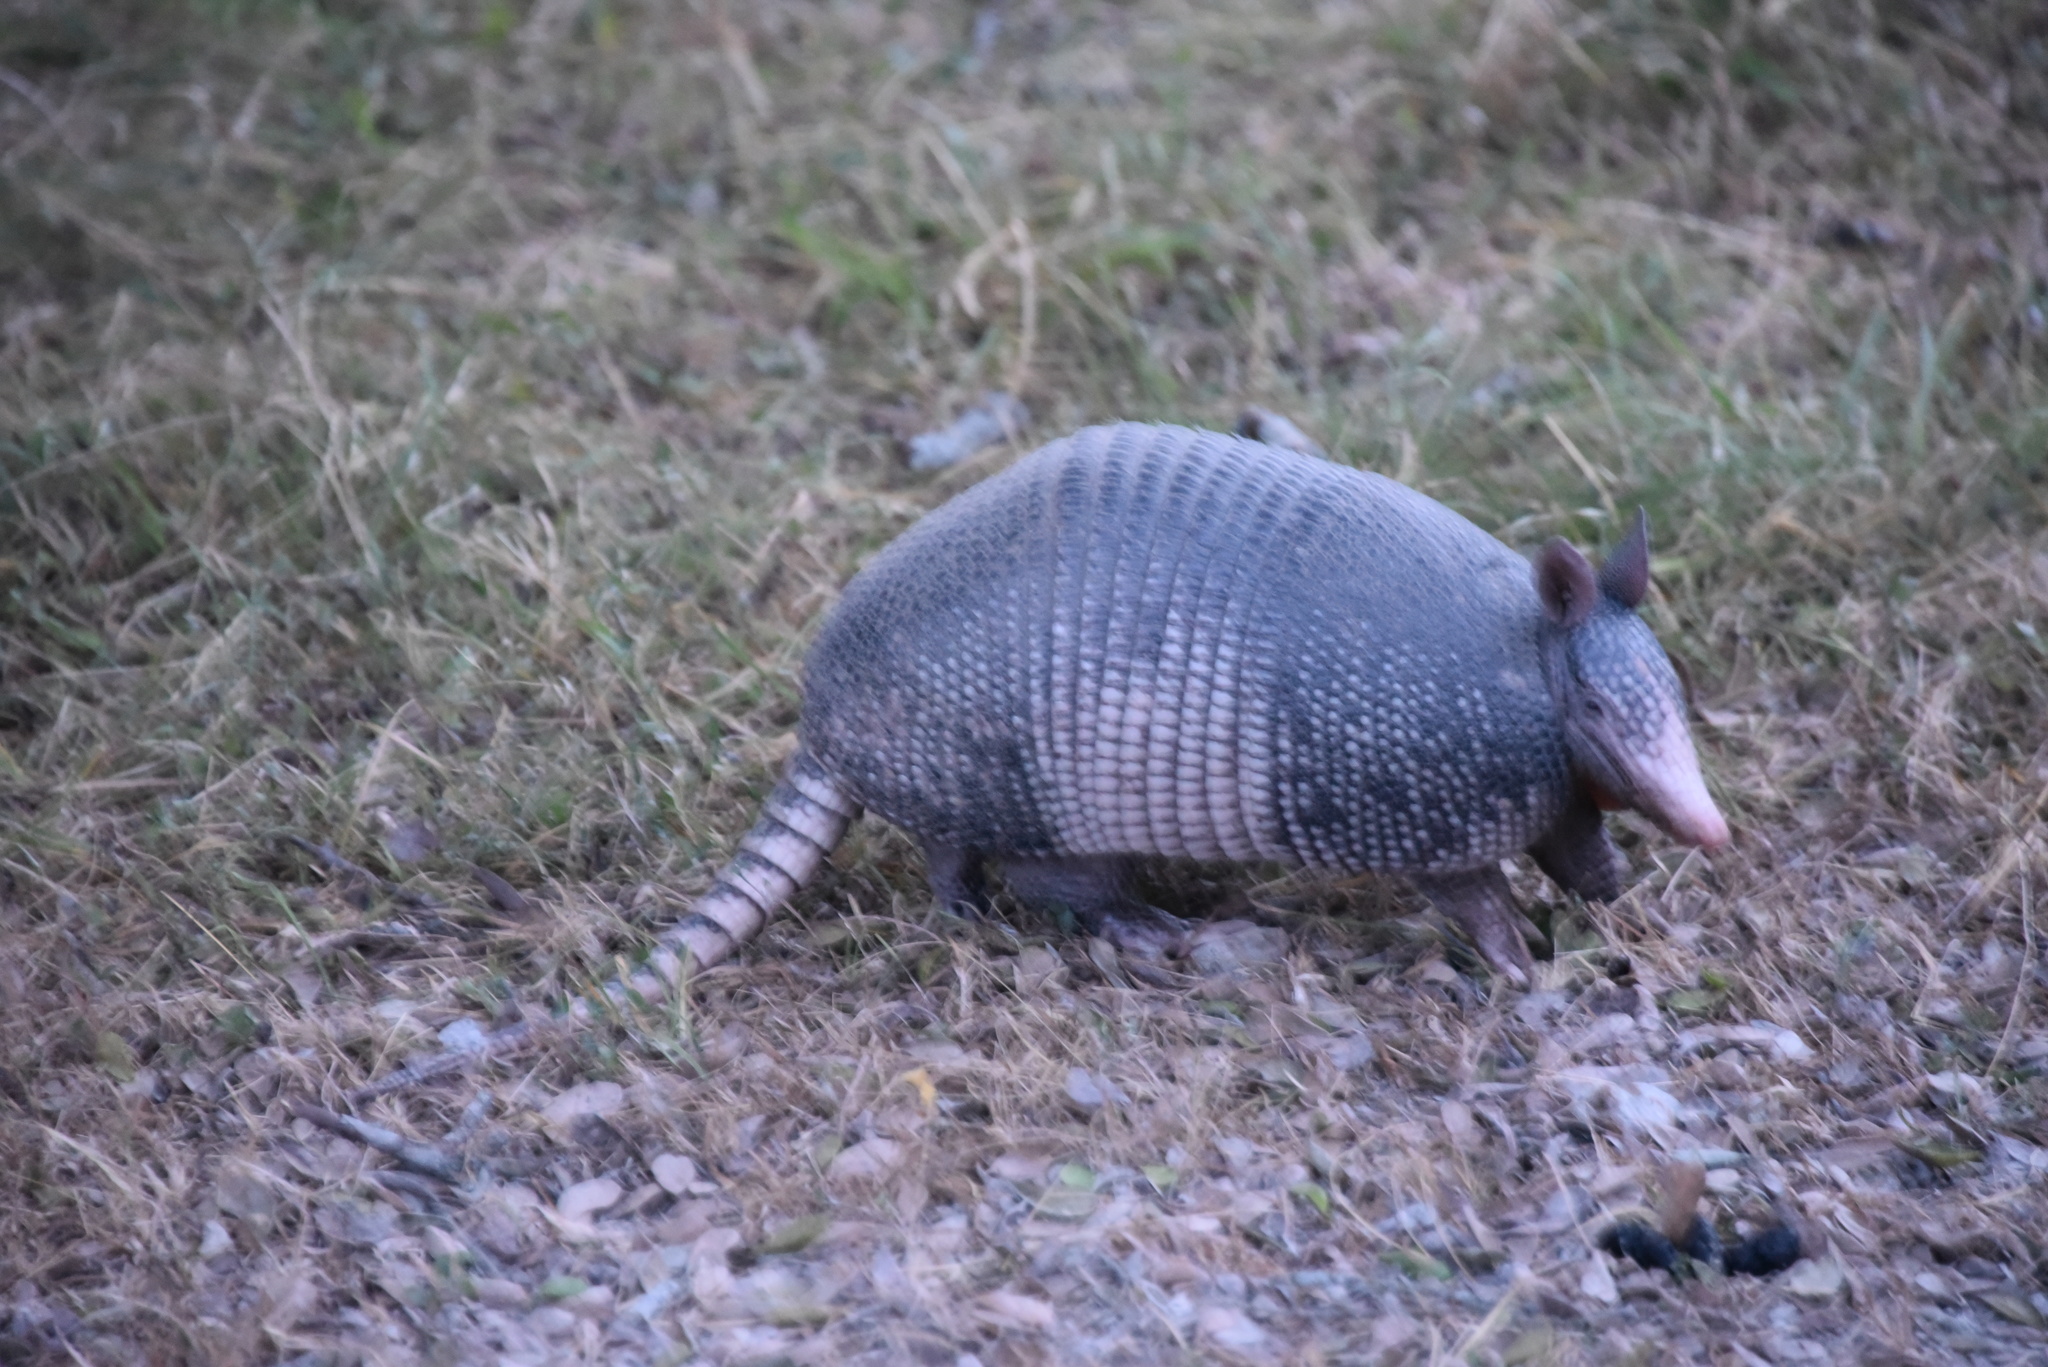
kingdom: Animalia
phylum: Chordata
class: Mammalia
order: Cingulata
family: Dasypodidae
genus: Dasypus
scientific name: Dasypus novemcinctus
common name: Nine-banded armadillo
